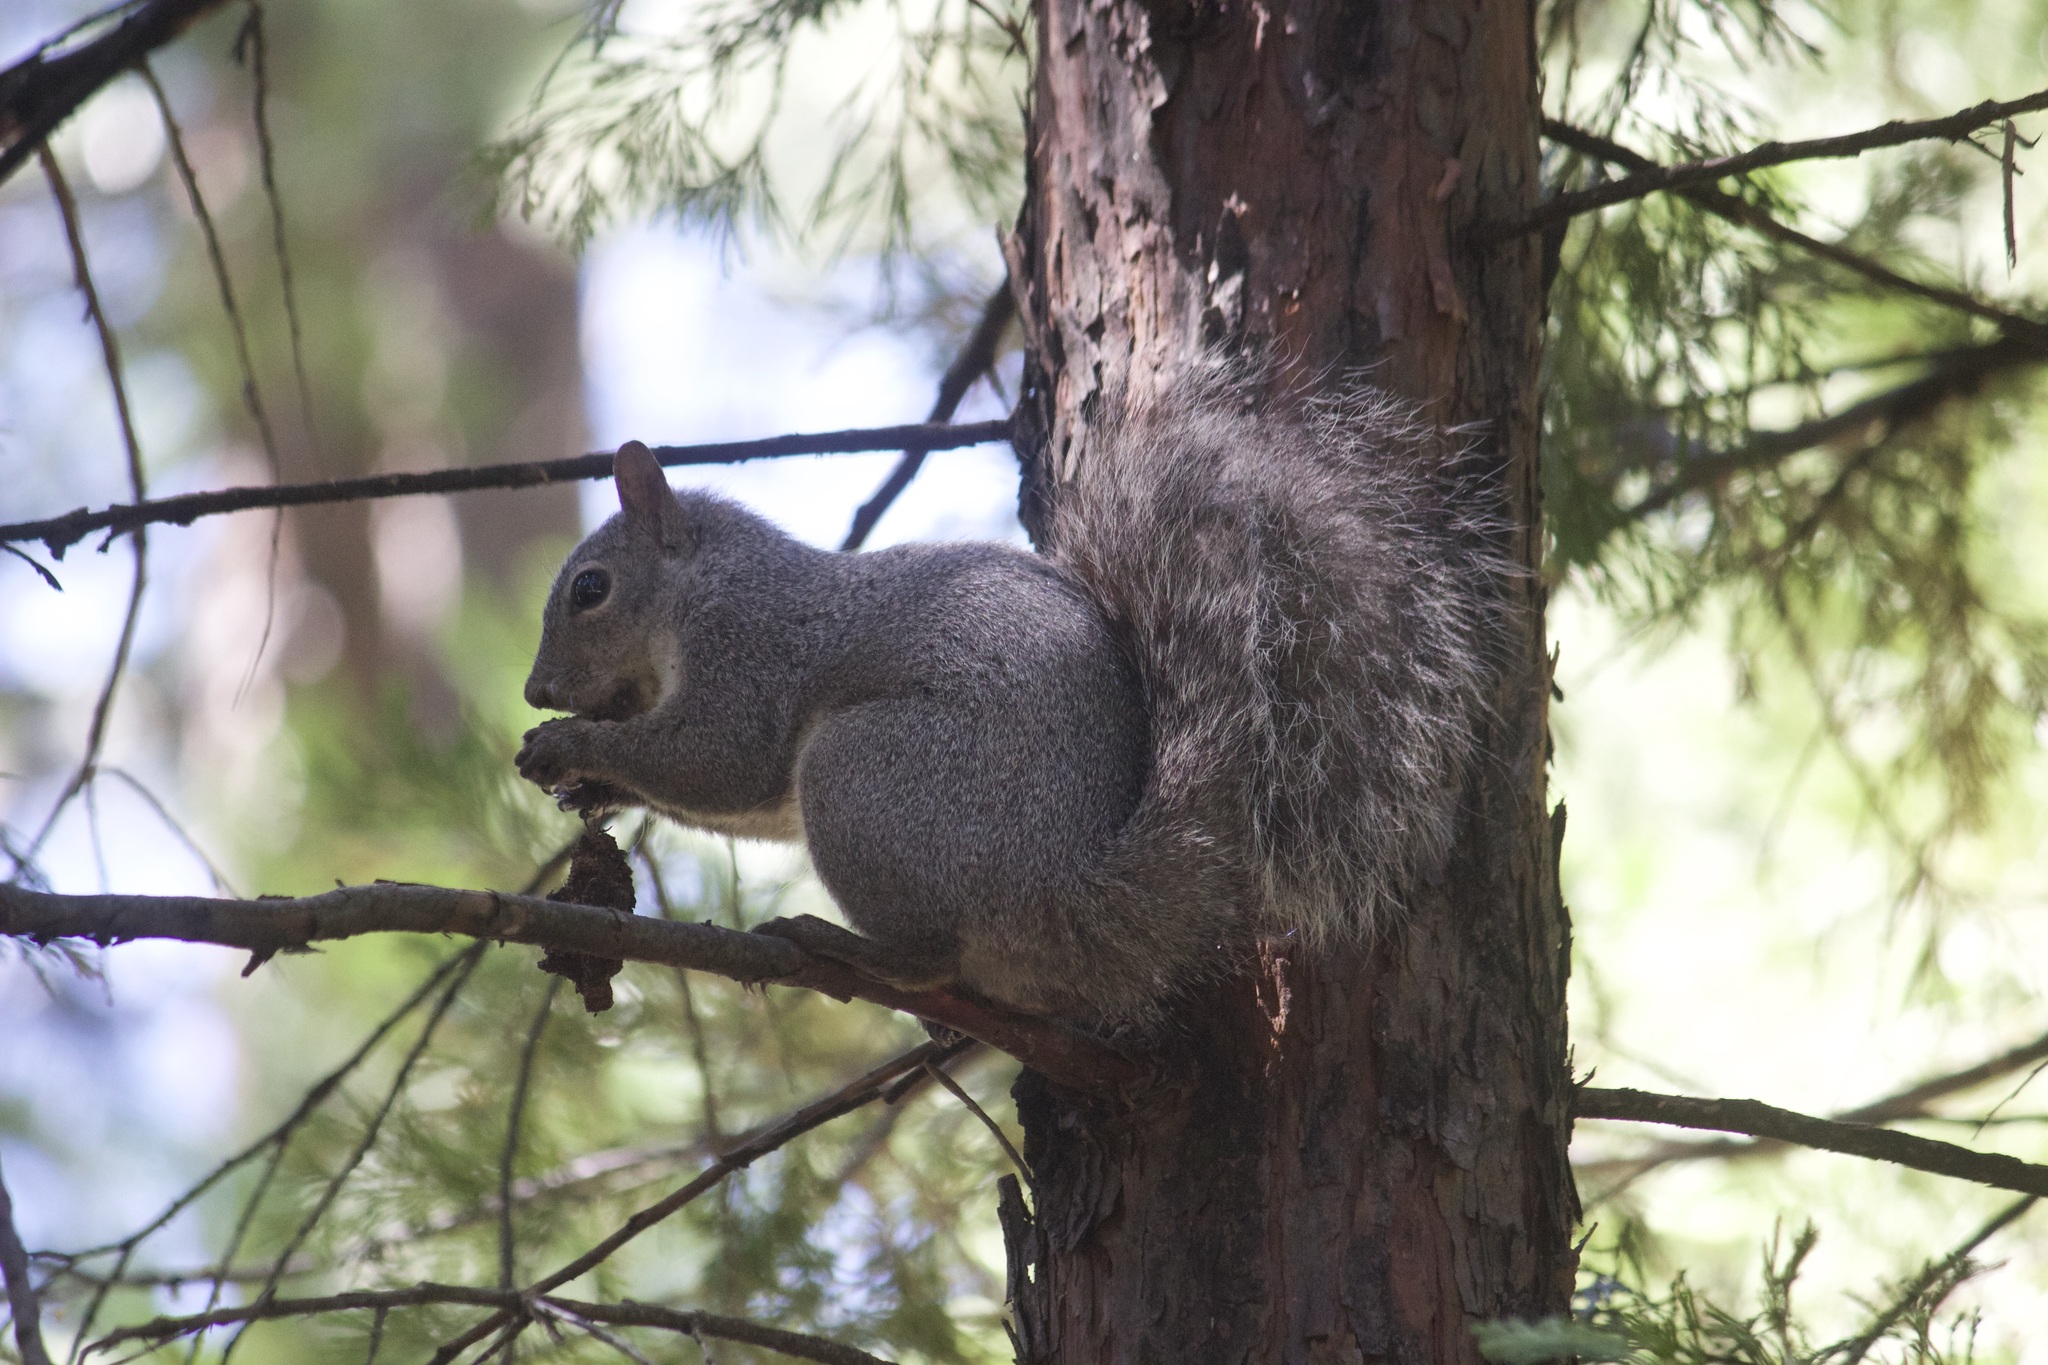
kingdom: Animalia
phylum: Chordata
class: Mammalia
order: Rodentia
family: Sciuridae
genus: Sciurus
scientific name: Sciurus griseus
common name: Western gray squirrel
